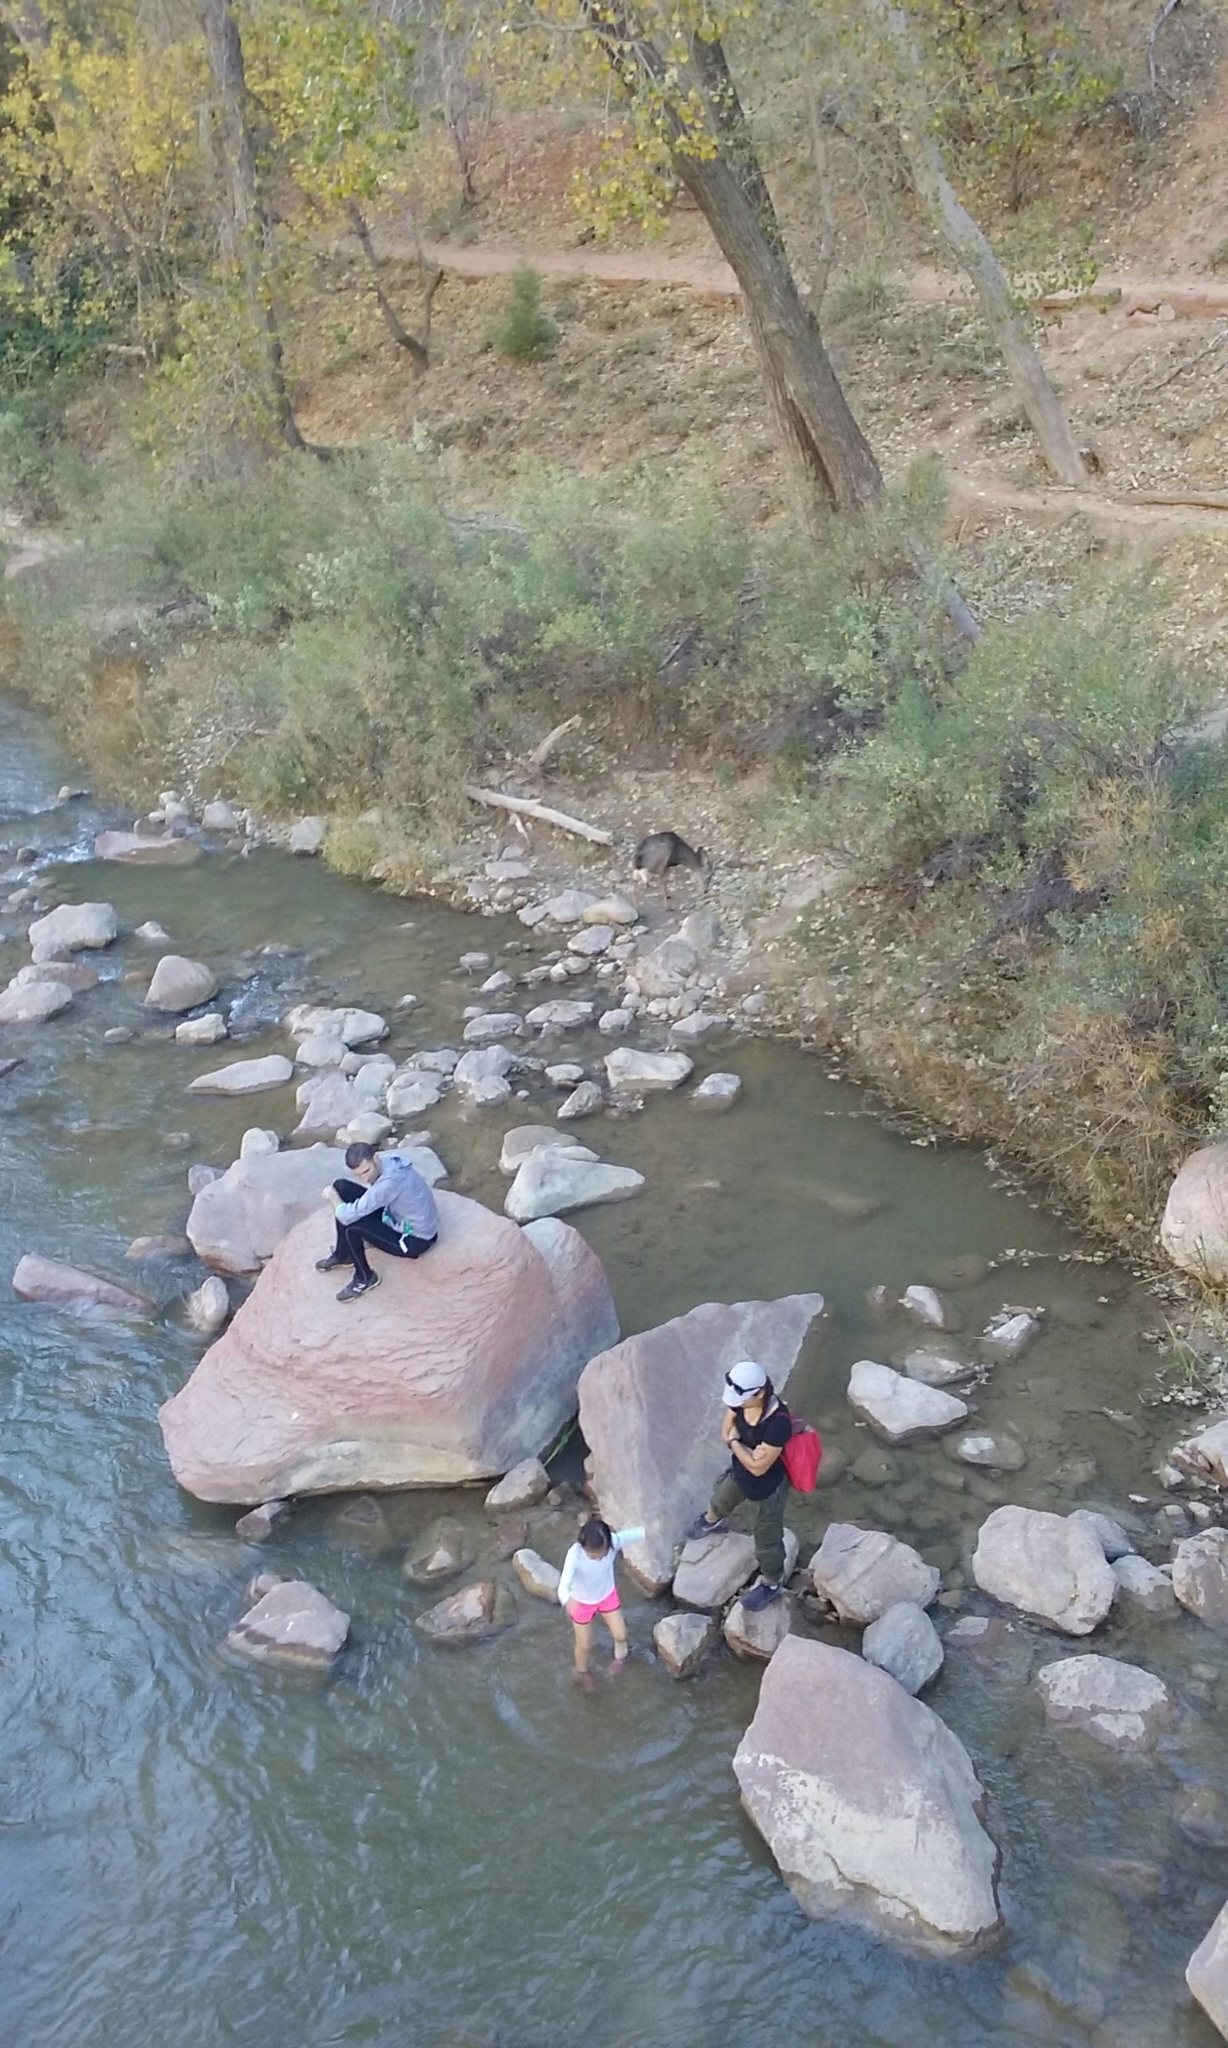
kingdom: Animalia
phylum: Chordata
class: Mammalia
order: Artiodactyla
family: Cervidae
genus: Odocoileus
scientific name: Odocoileus hemionus
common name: Mule deer
